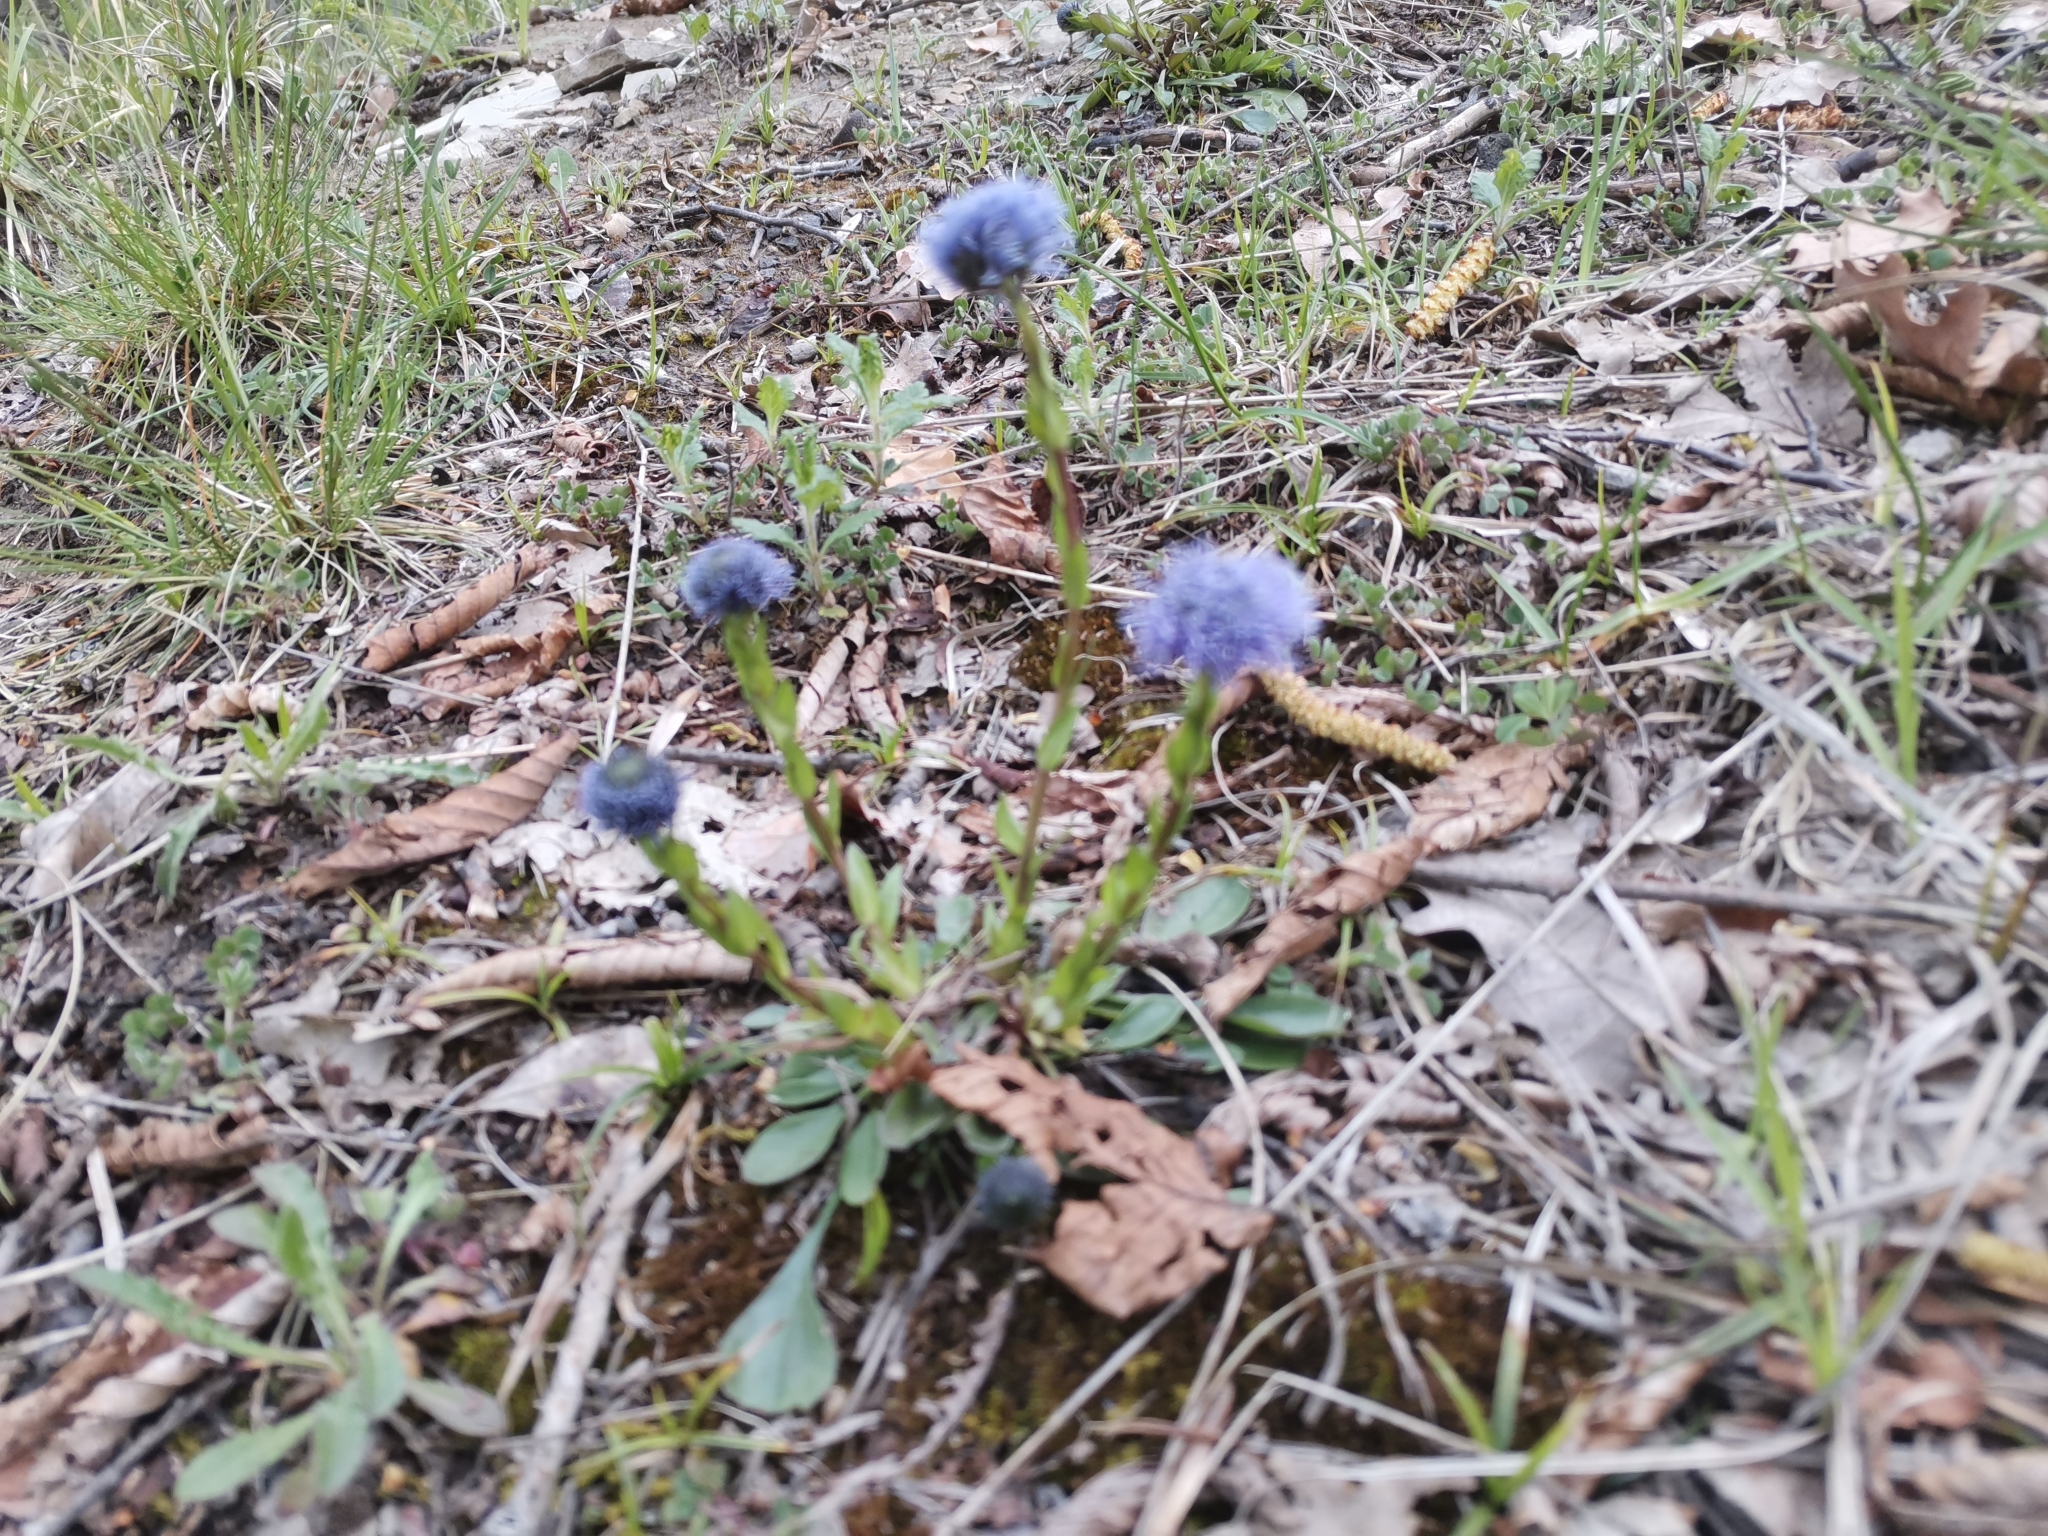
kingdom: Plantae
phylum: Tracheophyta
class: Magnoliopsida
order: Lamiales
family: Plantaginaceae
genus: Globularia
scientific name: Globularia bisnagarica
